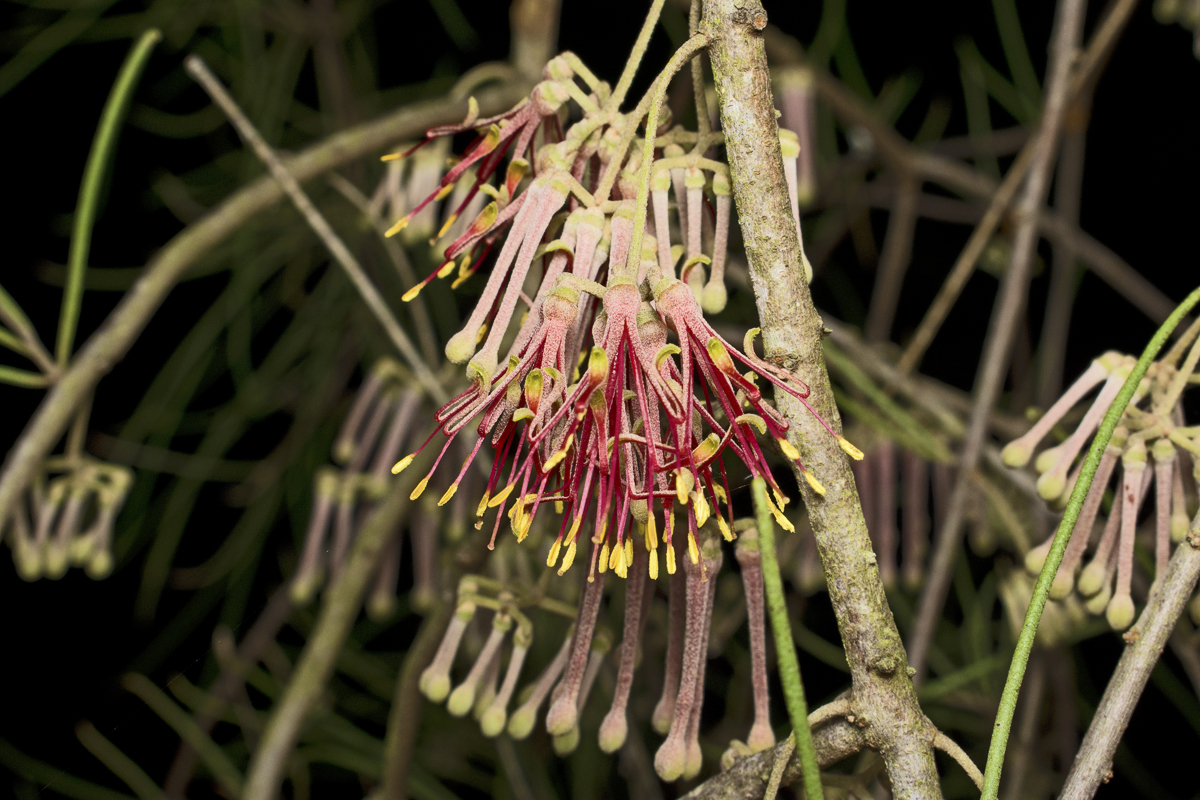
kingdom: Plantae
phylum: Tracheophyta
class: Magnoliopsida
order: Santalales
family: Loranthaceae
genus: Amyema
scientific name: Amyema cambagei
